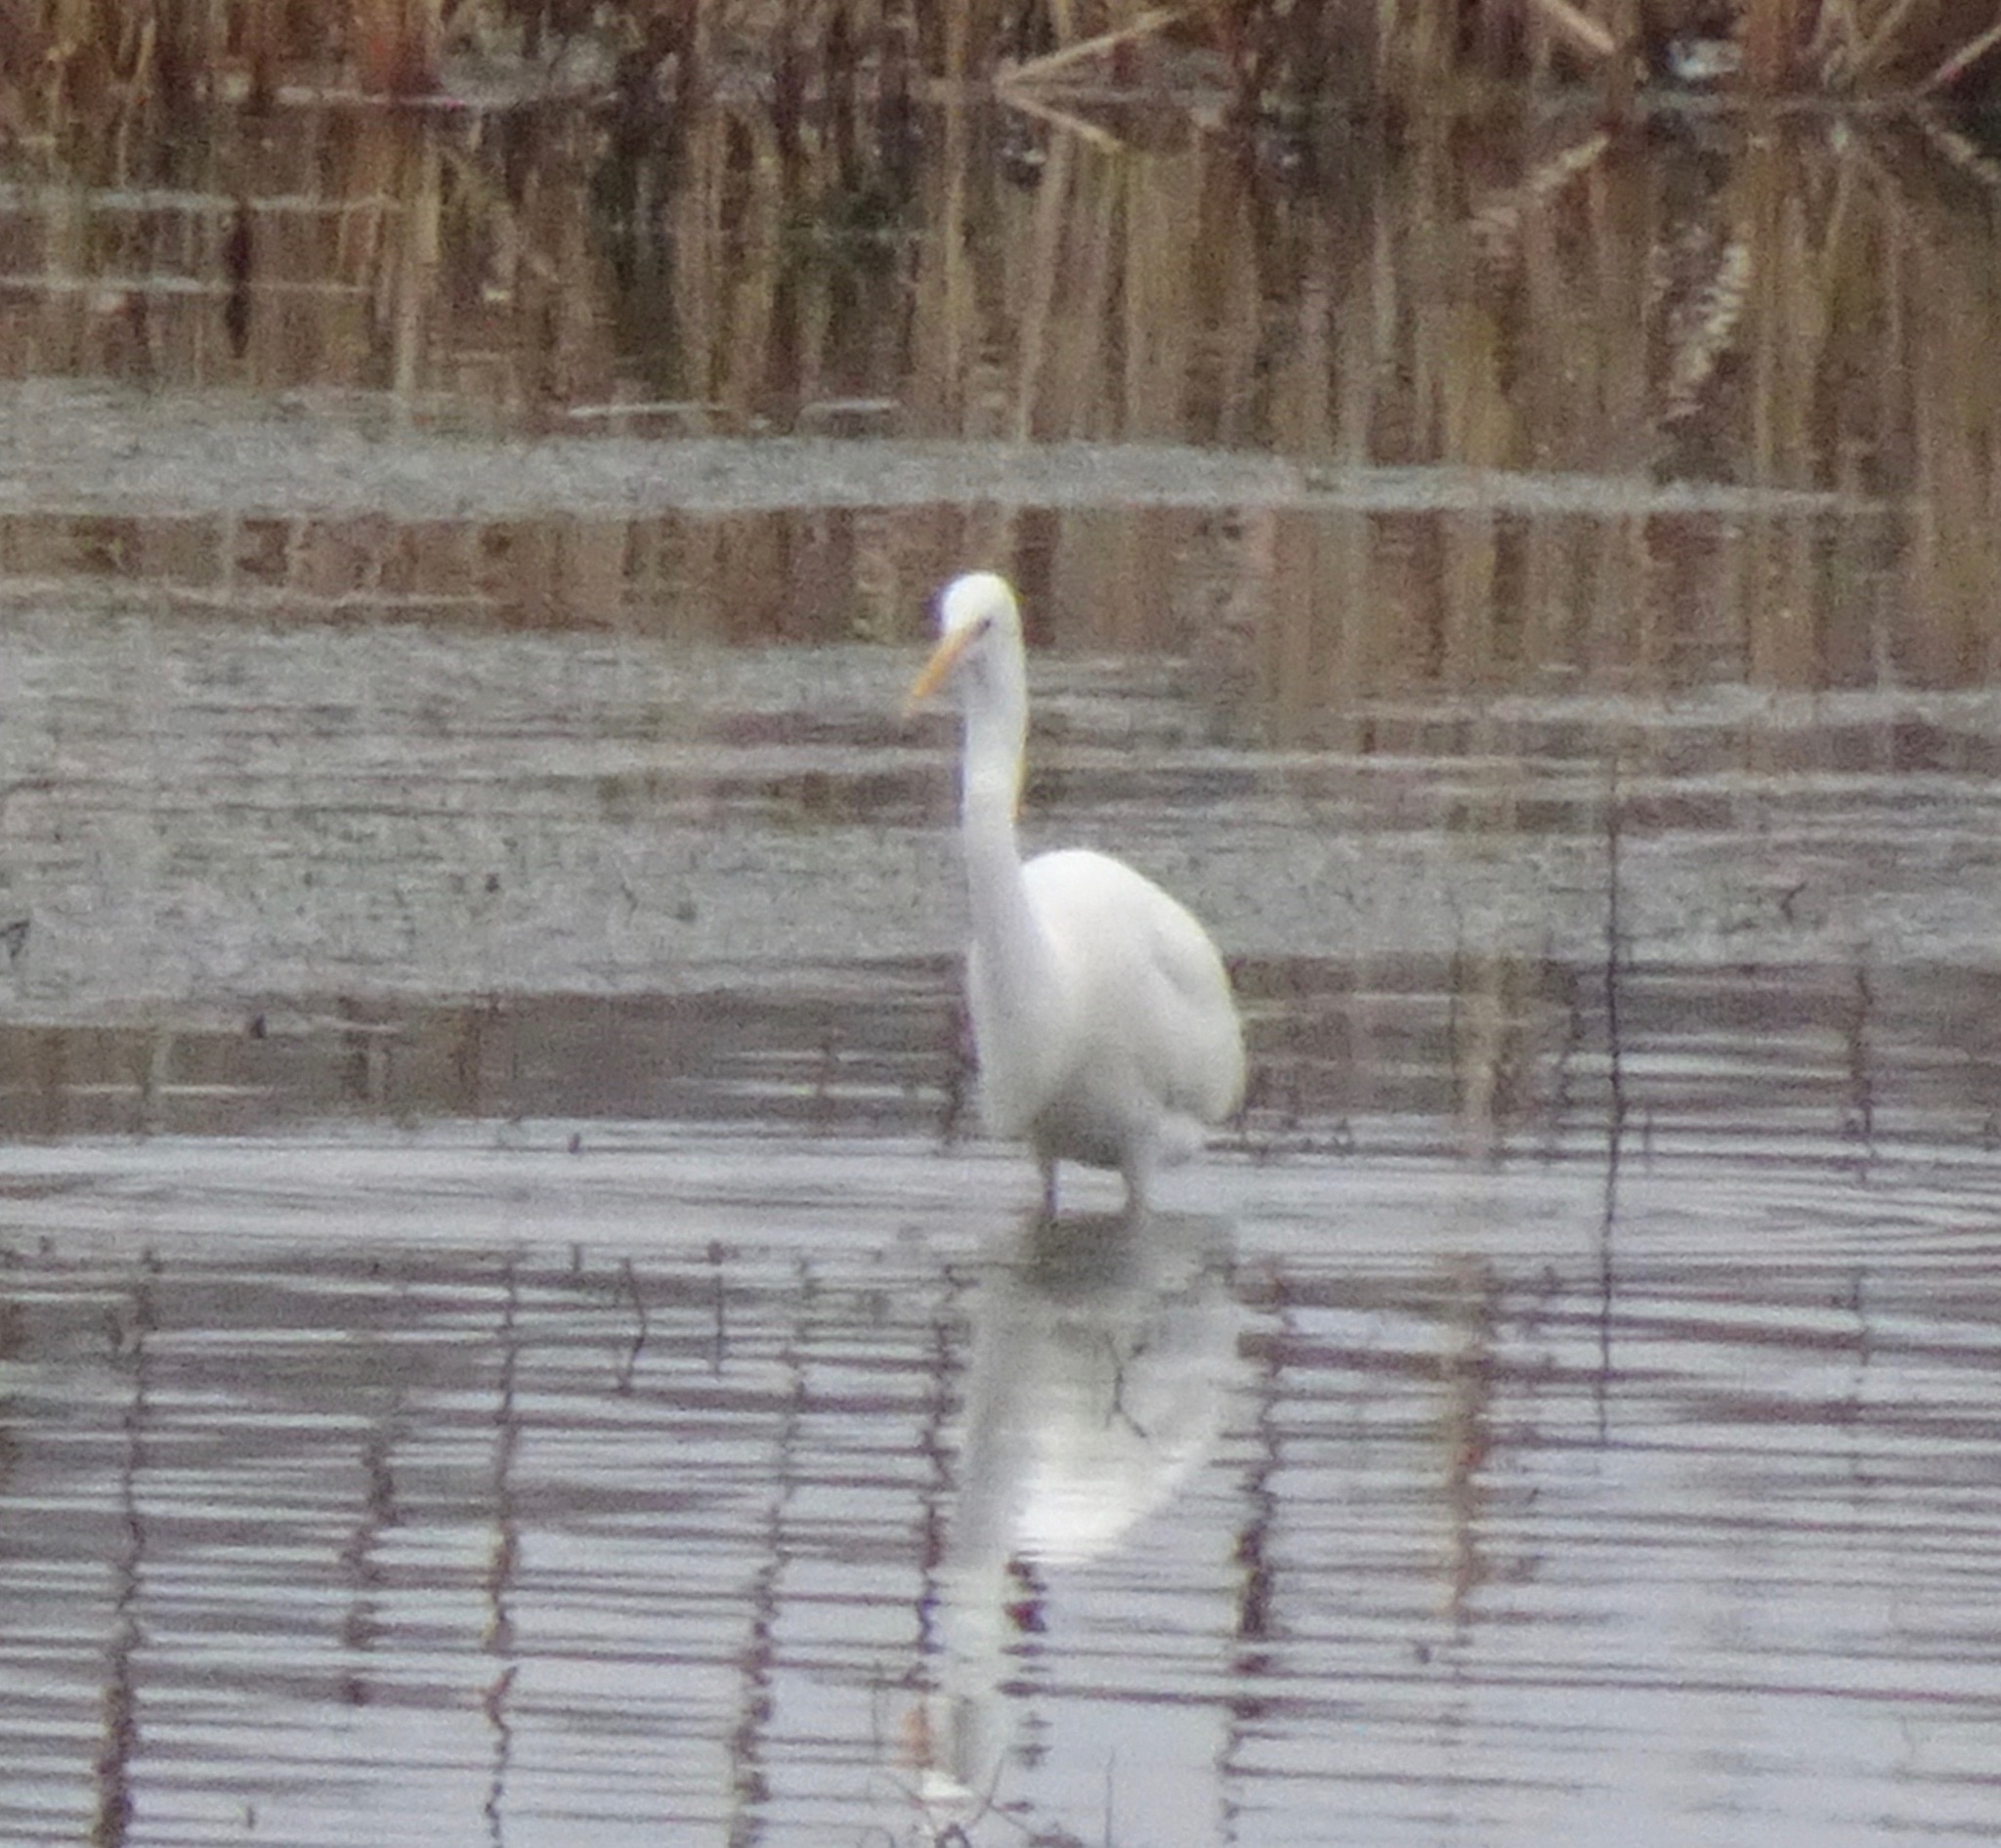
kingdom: Animalia
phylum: Chordata
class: Aves
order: Pelecaniformes
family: Ardeidae
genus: Ardea
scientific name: Ardea alba
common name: Great egret
